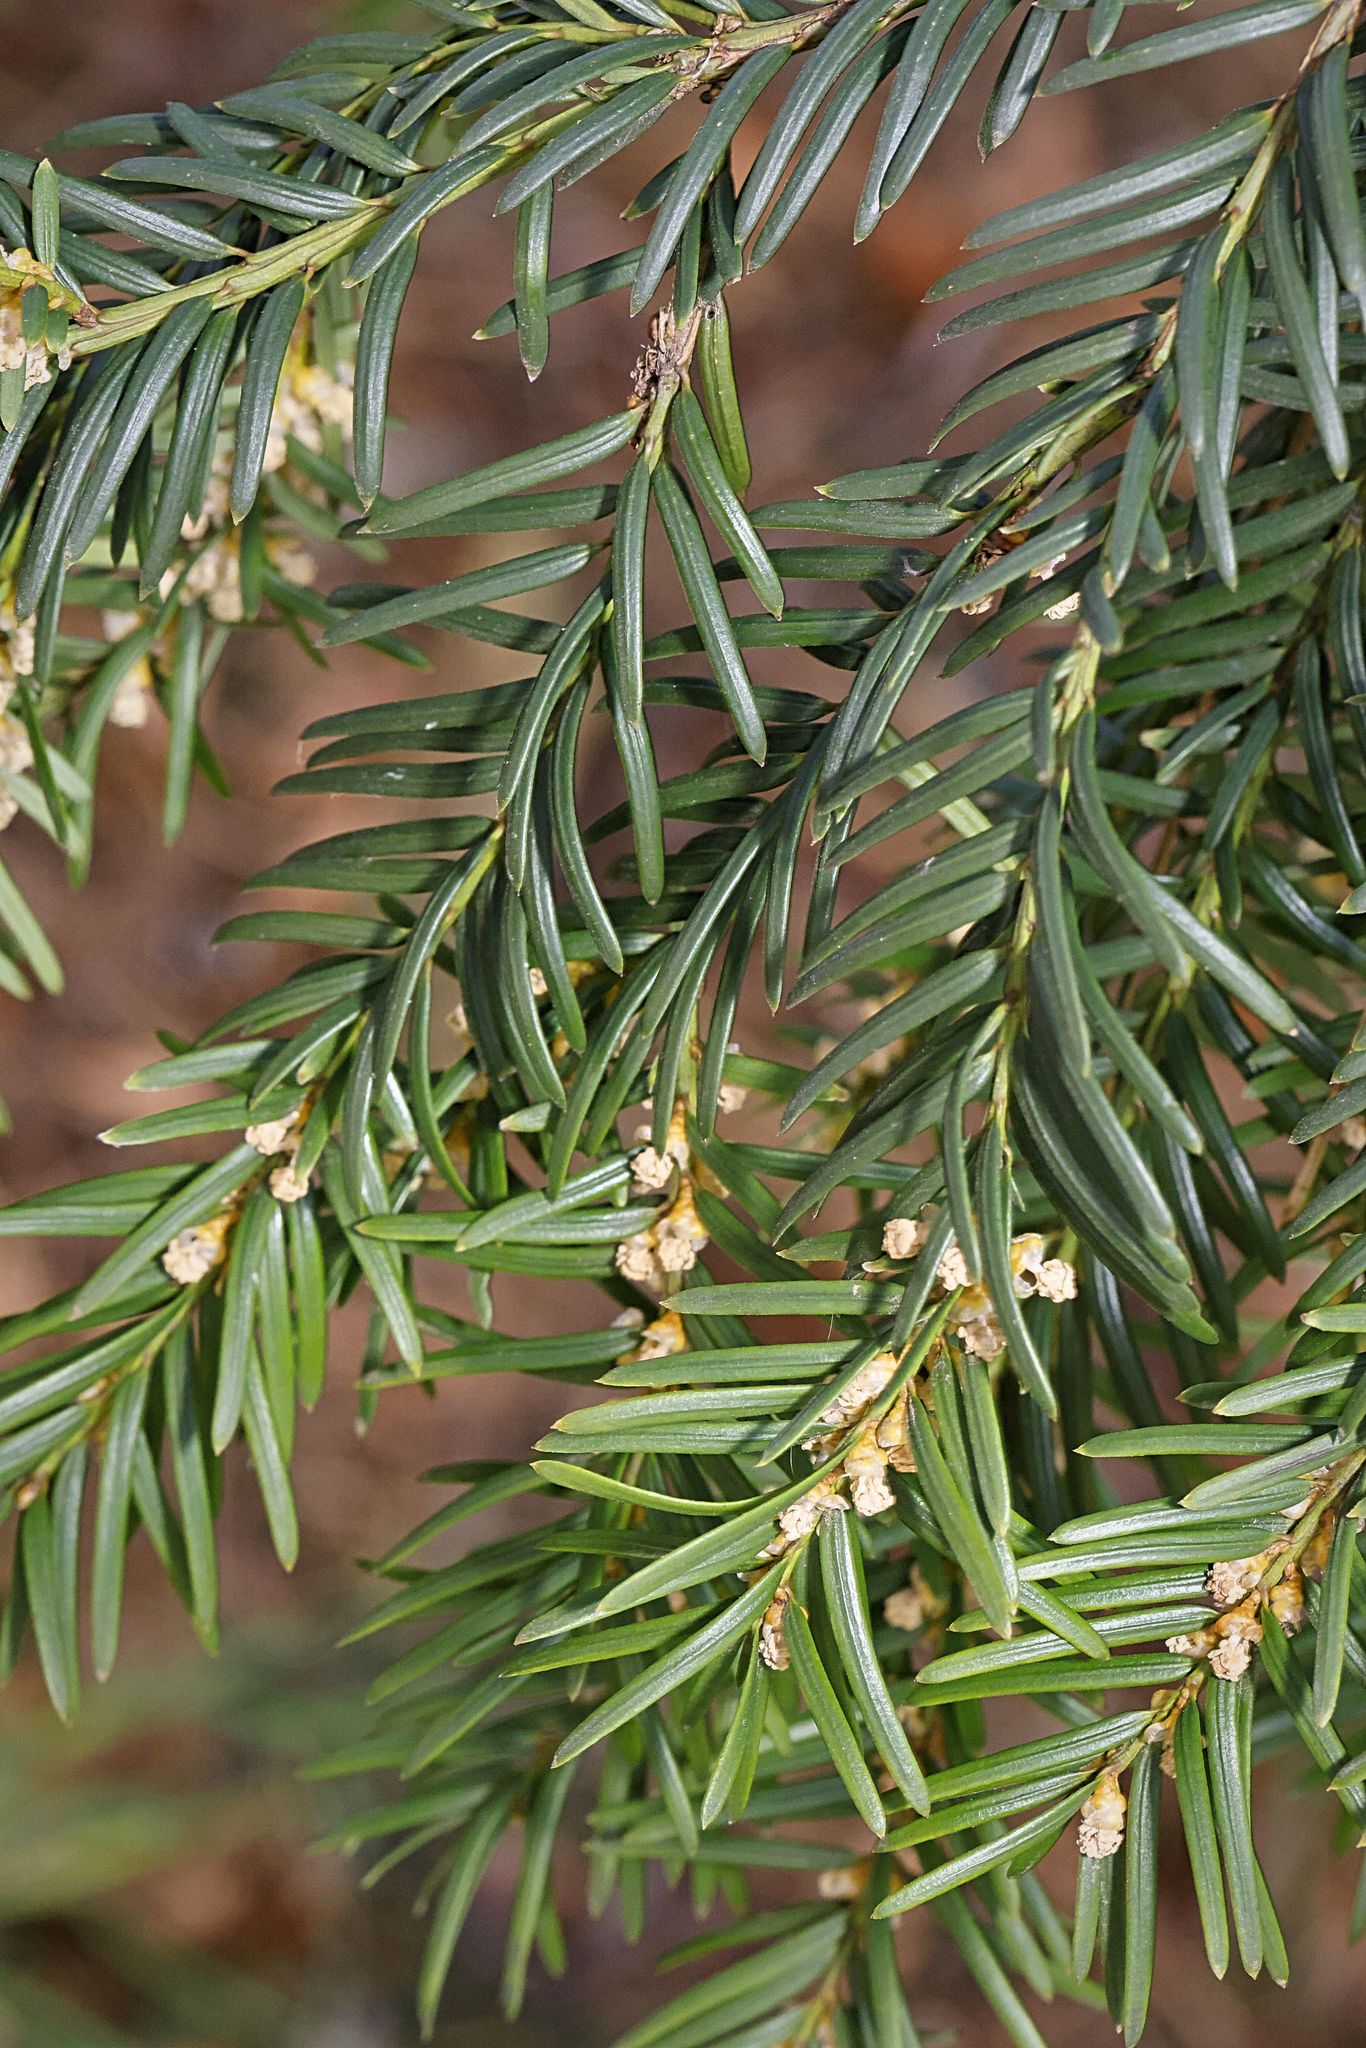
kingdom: Plantae
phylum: Tracheophyta
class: Pinopsida
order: Pinales
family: Taxaceae
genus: Taxus
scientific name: Taxus baccata
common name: Yew
